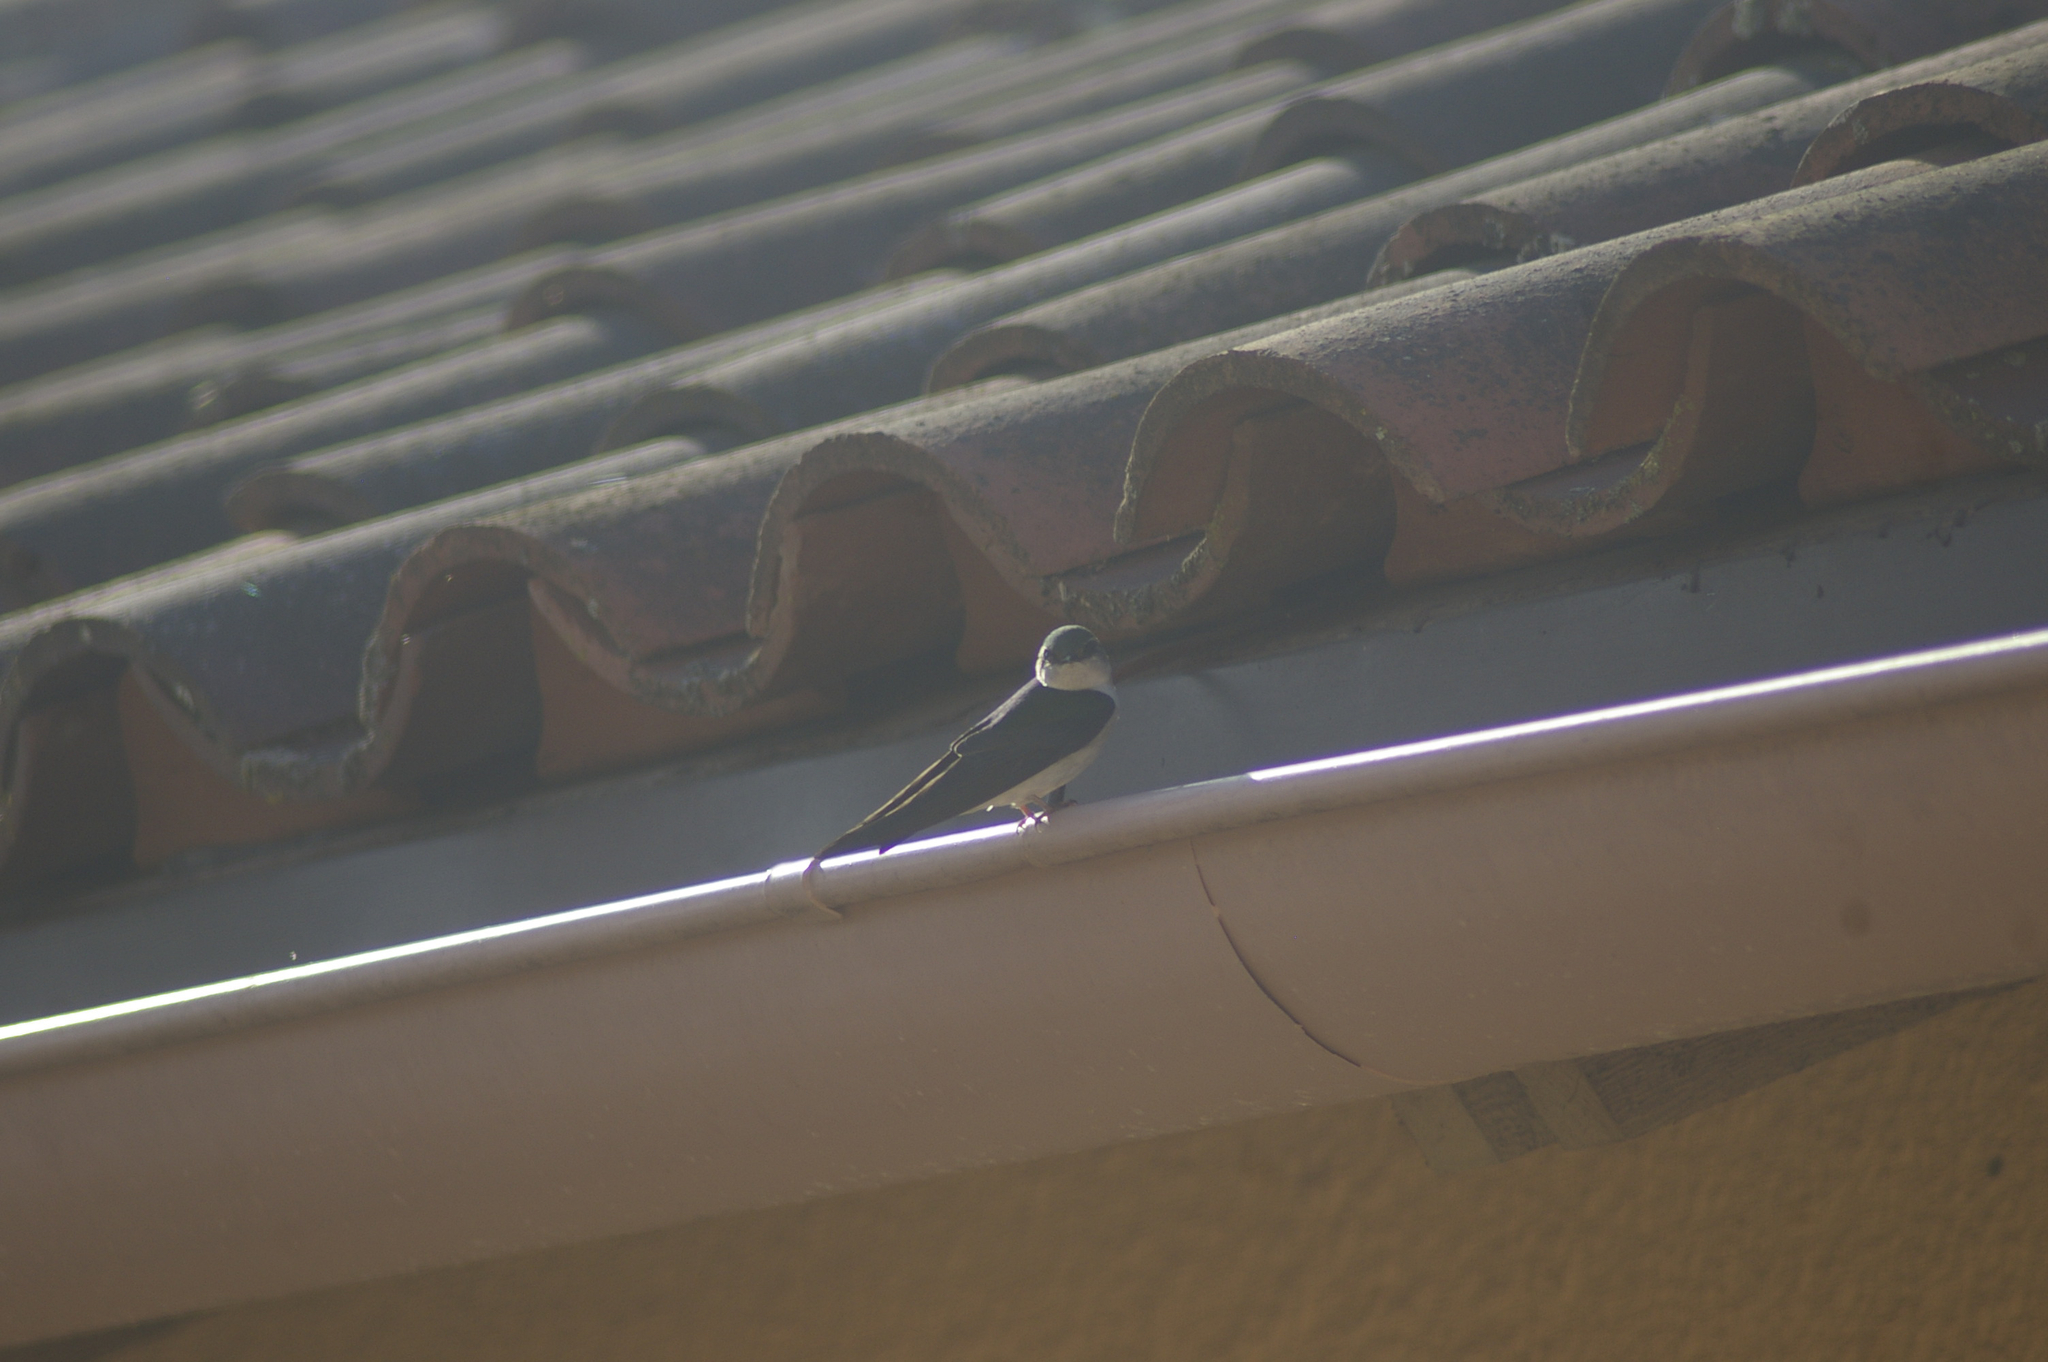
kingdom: Animalia
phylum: Chordata
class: Aves
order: Passeriformes
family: Hirundinidae
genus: Tachycineta
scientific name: Tachycineta thalassina
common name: Violet-green swallow
